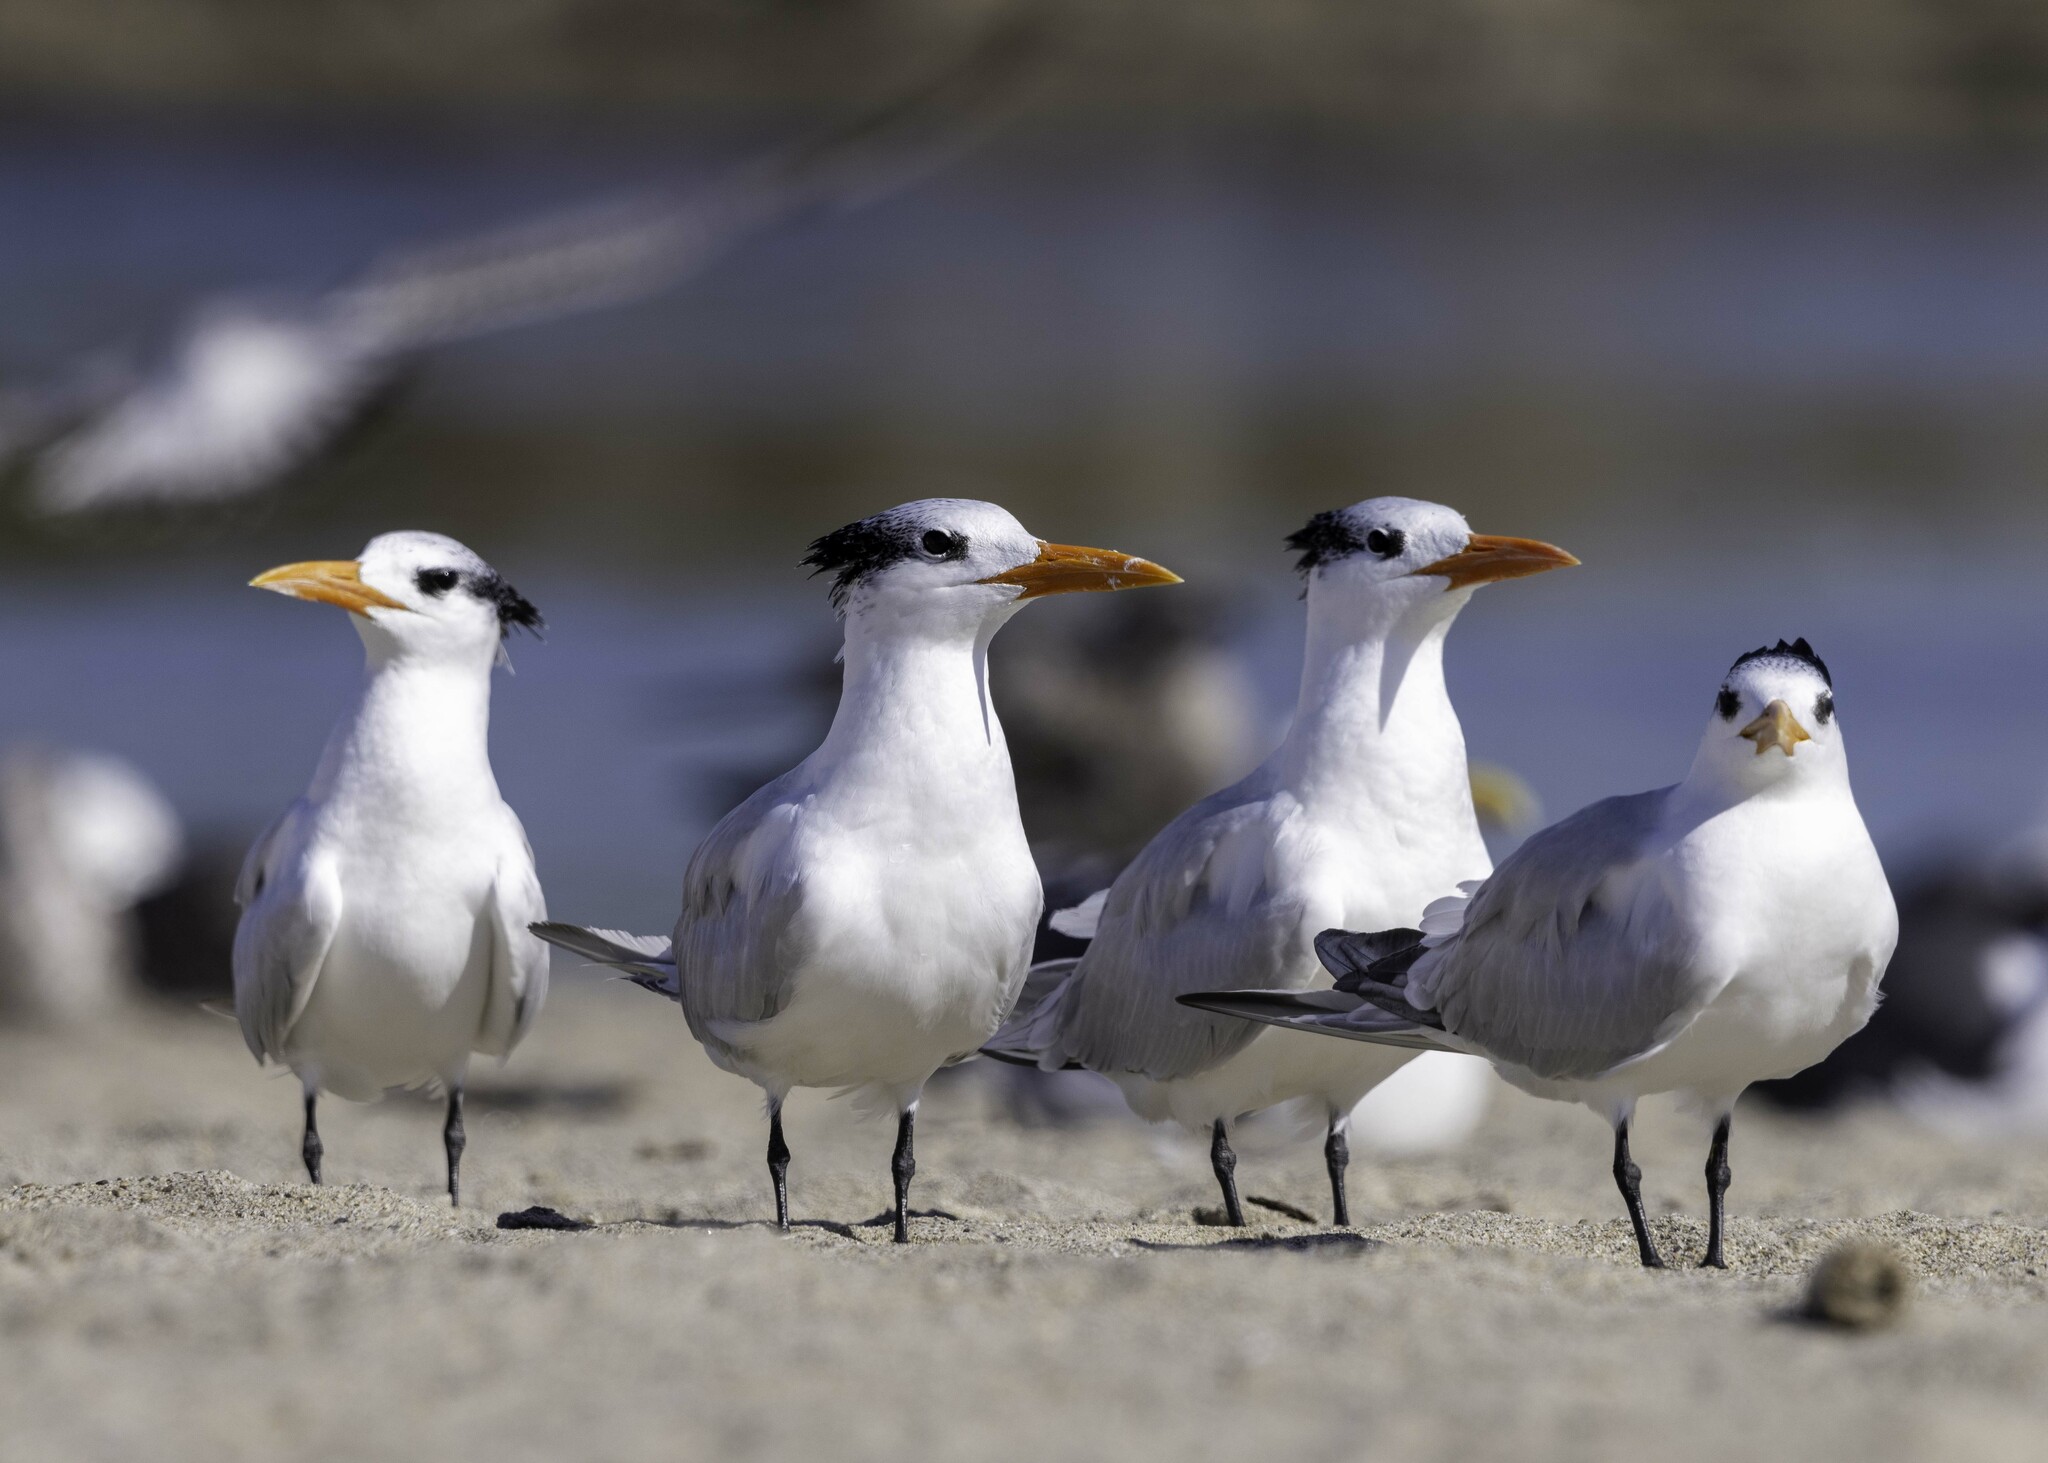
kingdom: Animalia
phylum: Chordata
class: Aves
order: Charadriiformes
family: Laridae
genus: Thalasseus
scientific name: Thalasseus maximus
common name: Royal tern
